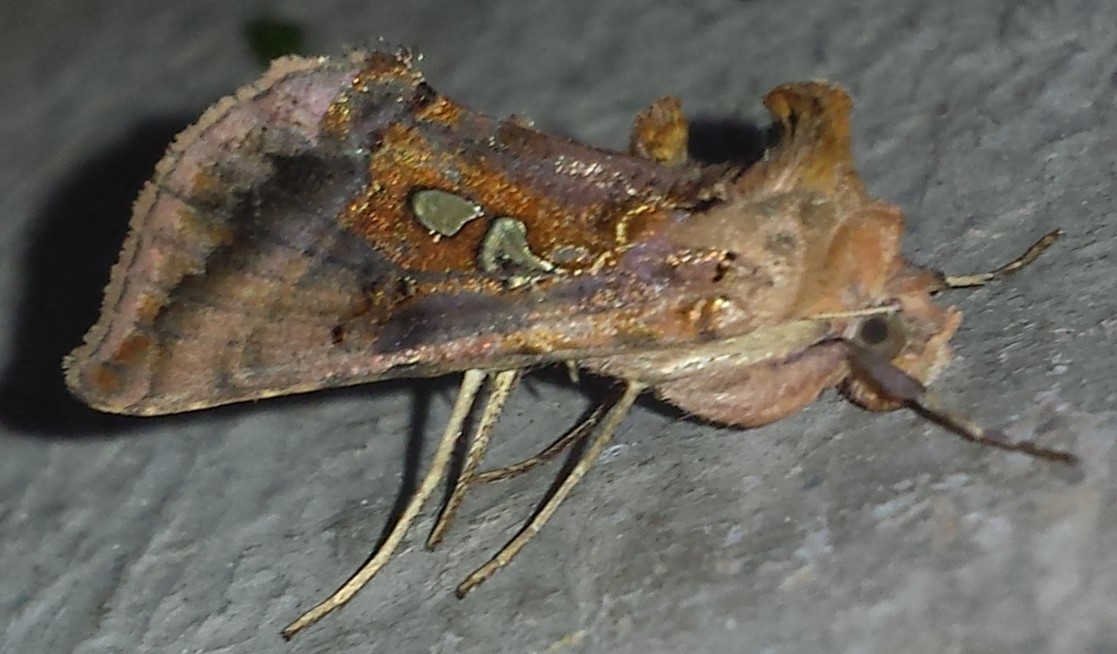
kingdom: Animalia
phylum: Arthropoda
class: Insecta
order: Lepidoptera
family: Noctuidae
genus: Autographa
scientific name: Autographa precationis
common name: Common looper moth
